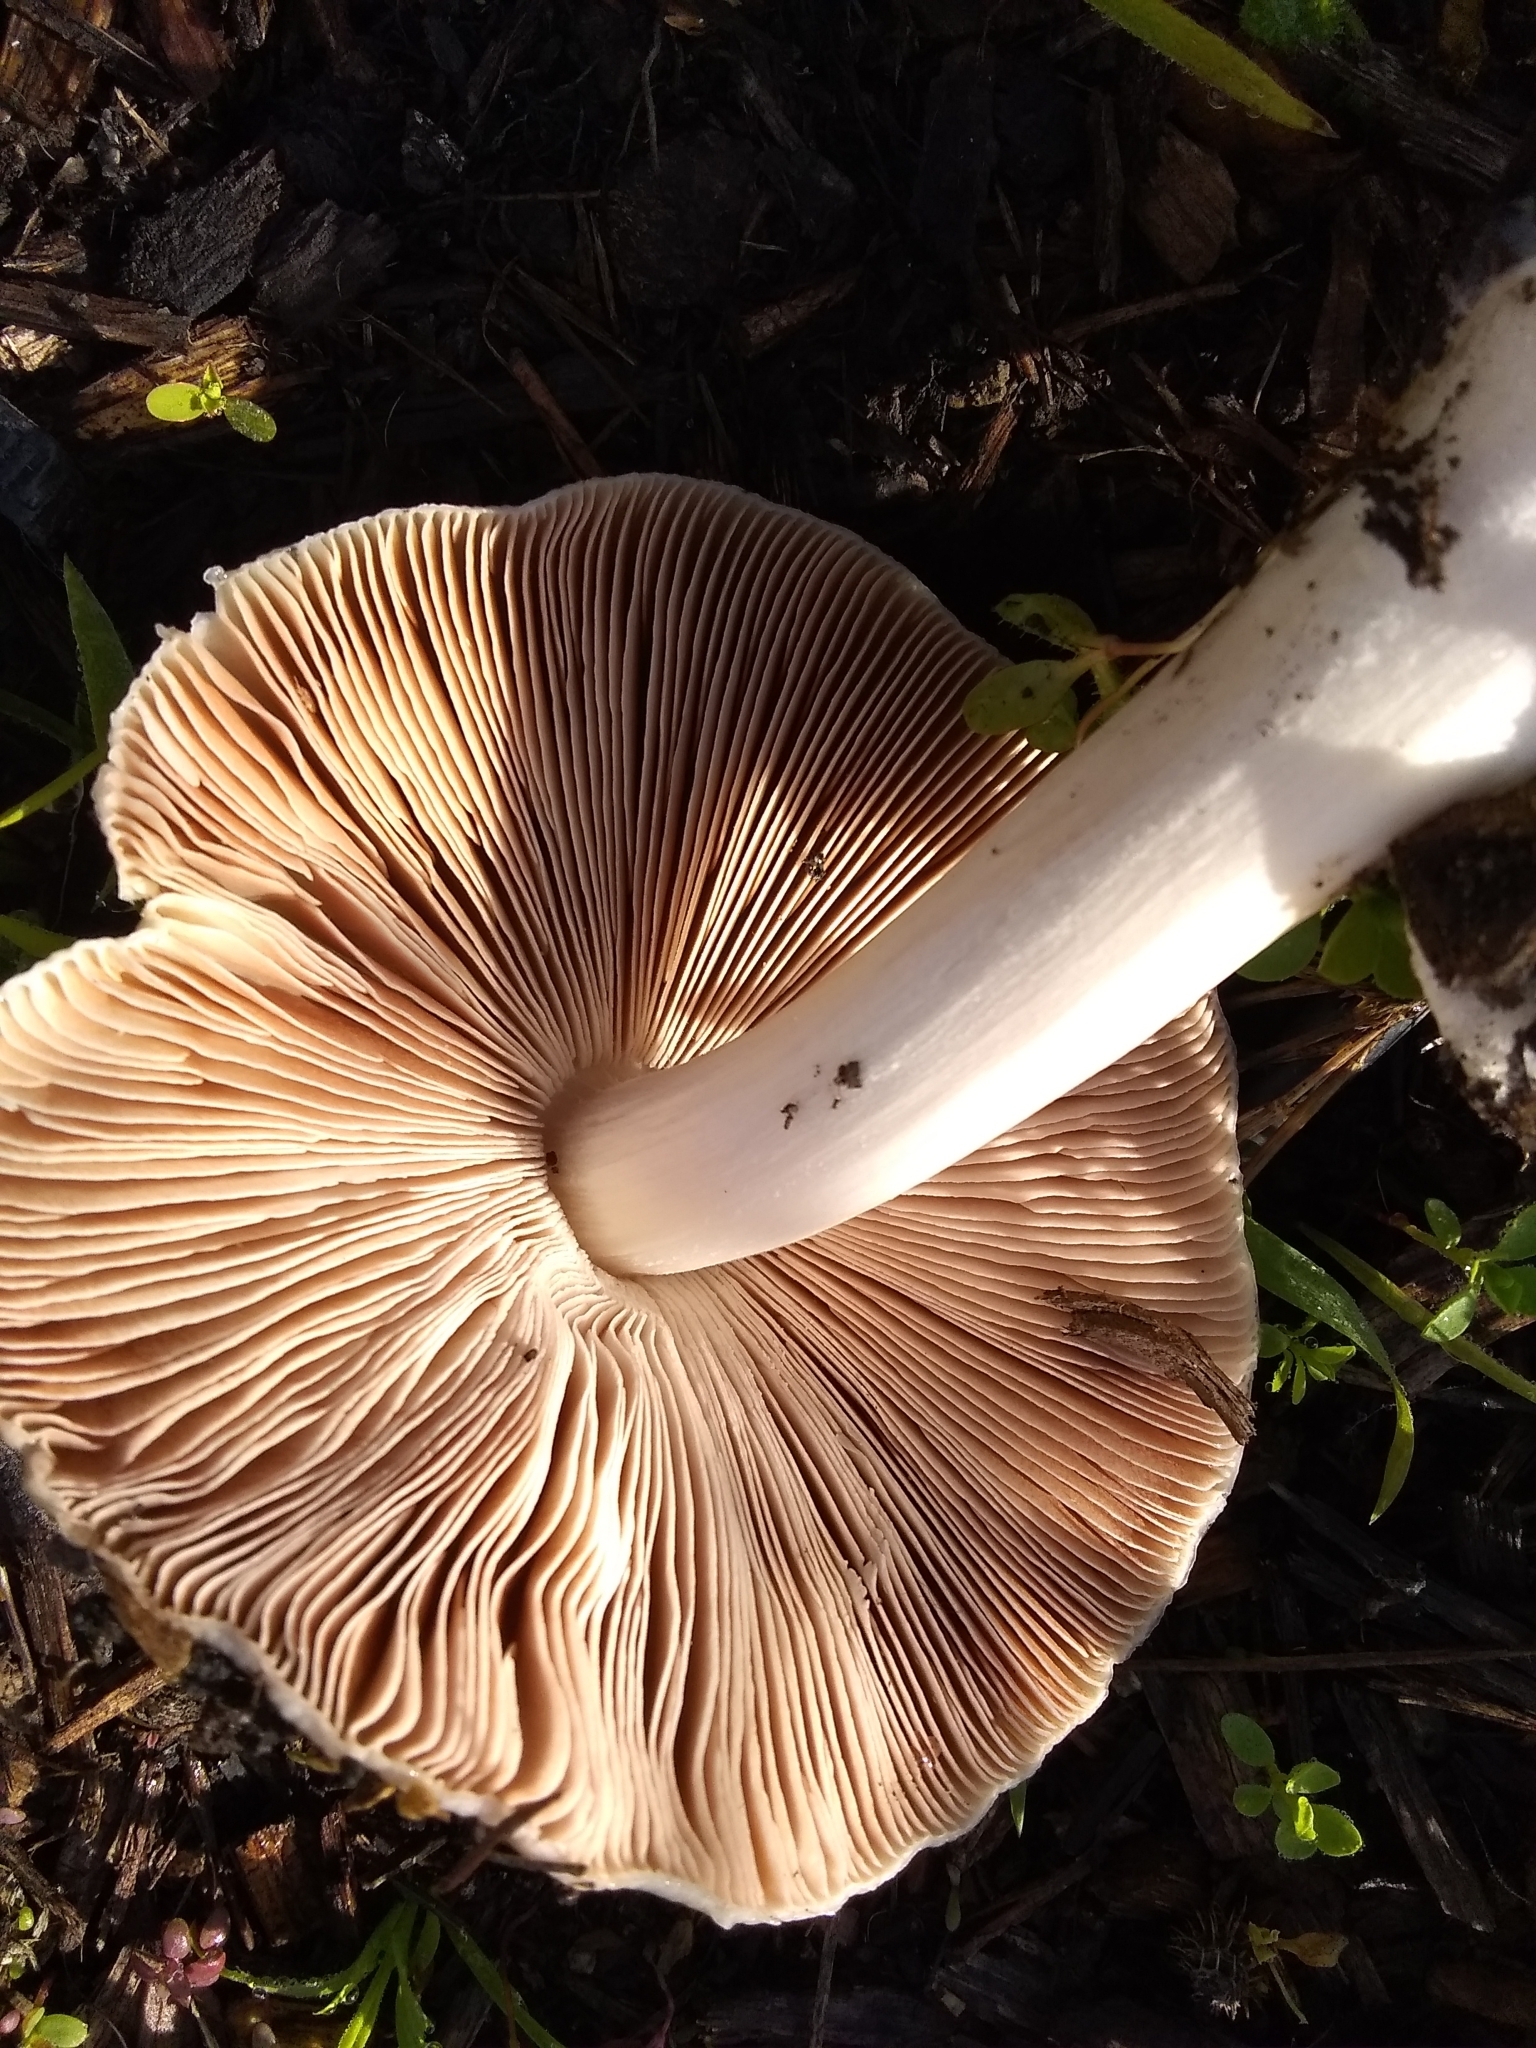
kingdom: Fungi
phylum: Basidiomycota
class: Agaricomycetes
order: Agaricales
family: Pluteaceae
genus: Volvopluteus
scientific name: Volvopluteus gloiocephalus
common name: Stubble rosegill
